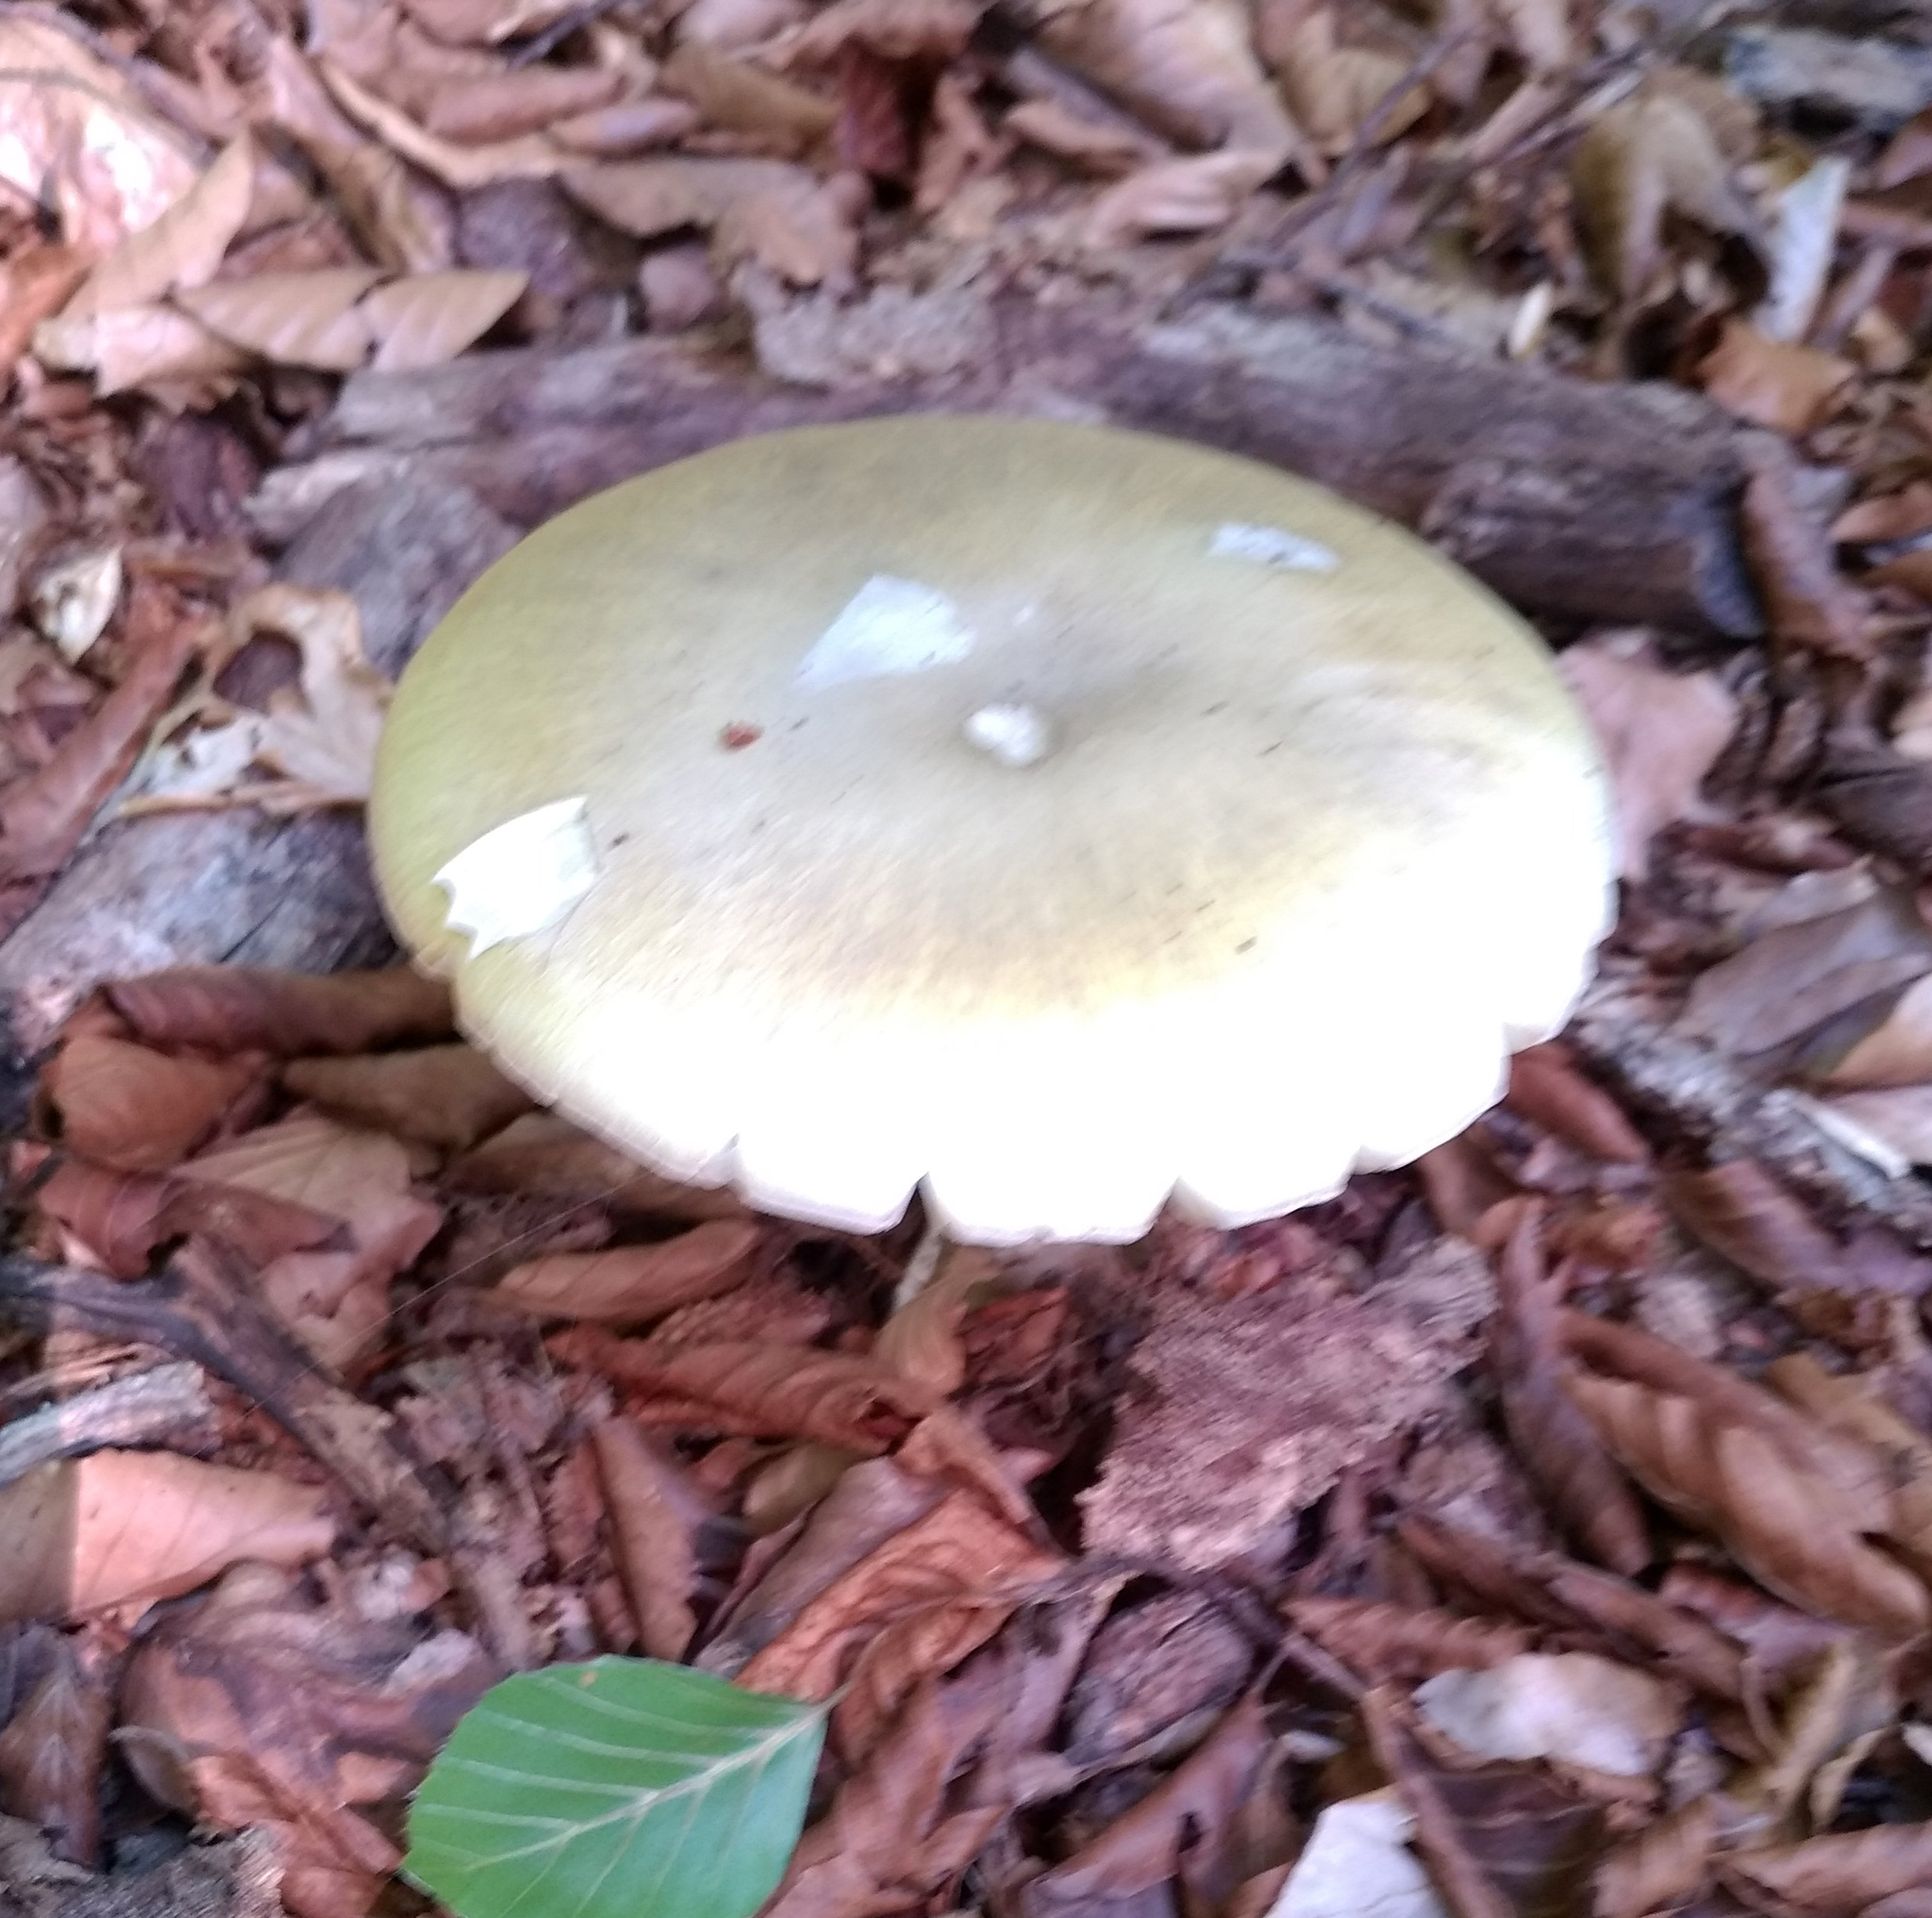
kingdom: Fungi
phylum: Basidiomycota
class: Agaricomycetes
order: Agaricales
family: Amanitaceae
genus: Amanita
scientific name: Amanita phalloides
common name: Death cap
